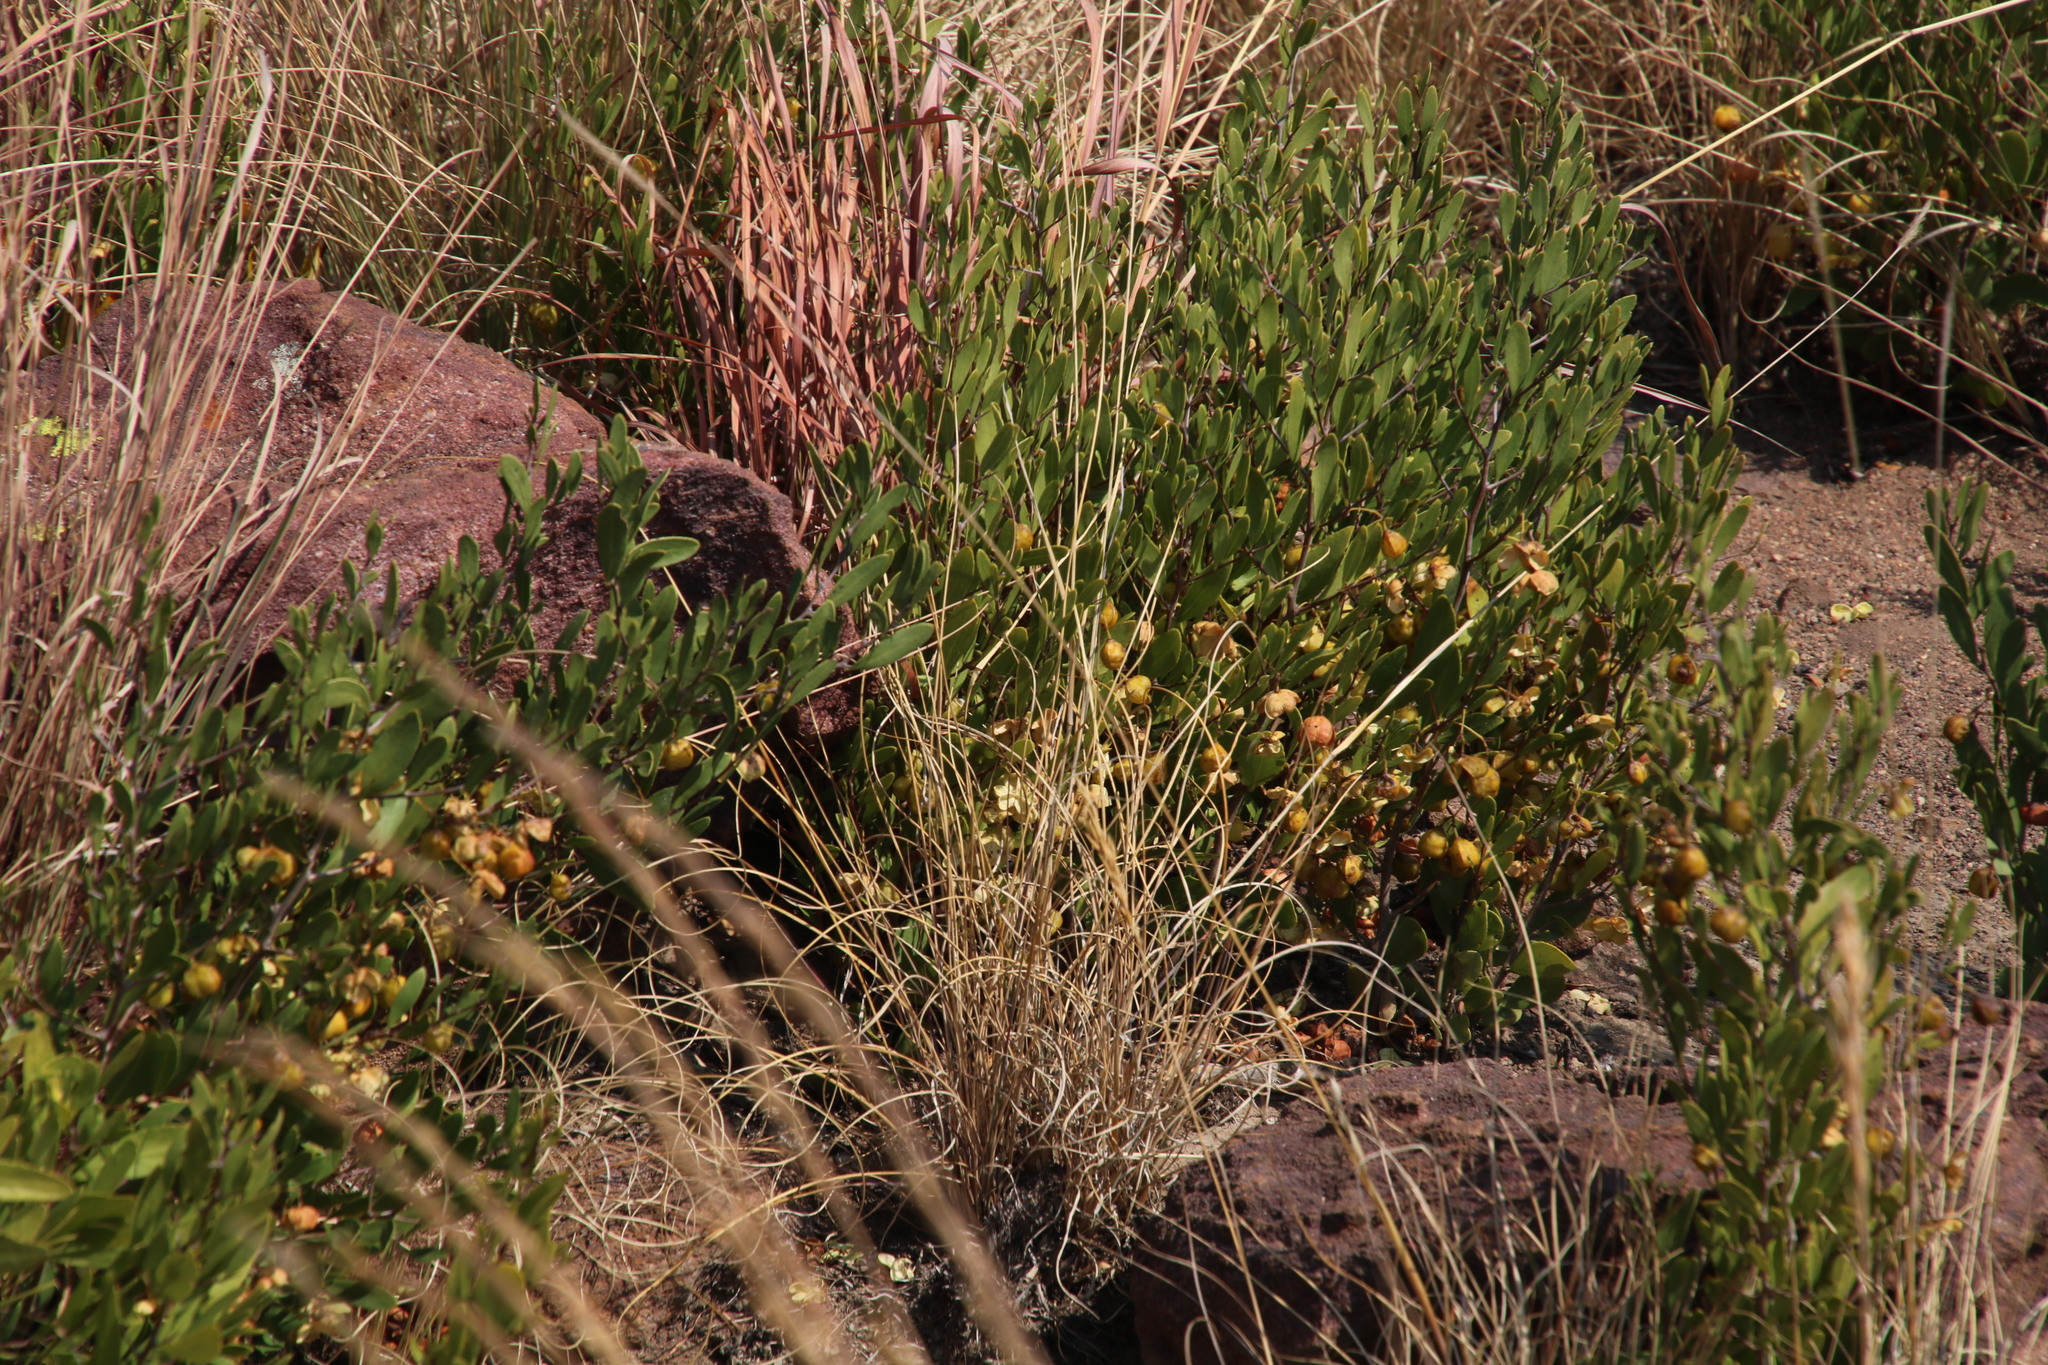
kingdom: Plantae
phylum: Tracheophyta
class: Magnoliopsida
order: Celastrales
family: Celastraceae
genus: Gymnosporia
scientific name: Gymnosporia tenuispina
